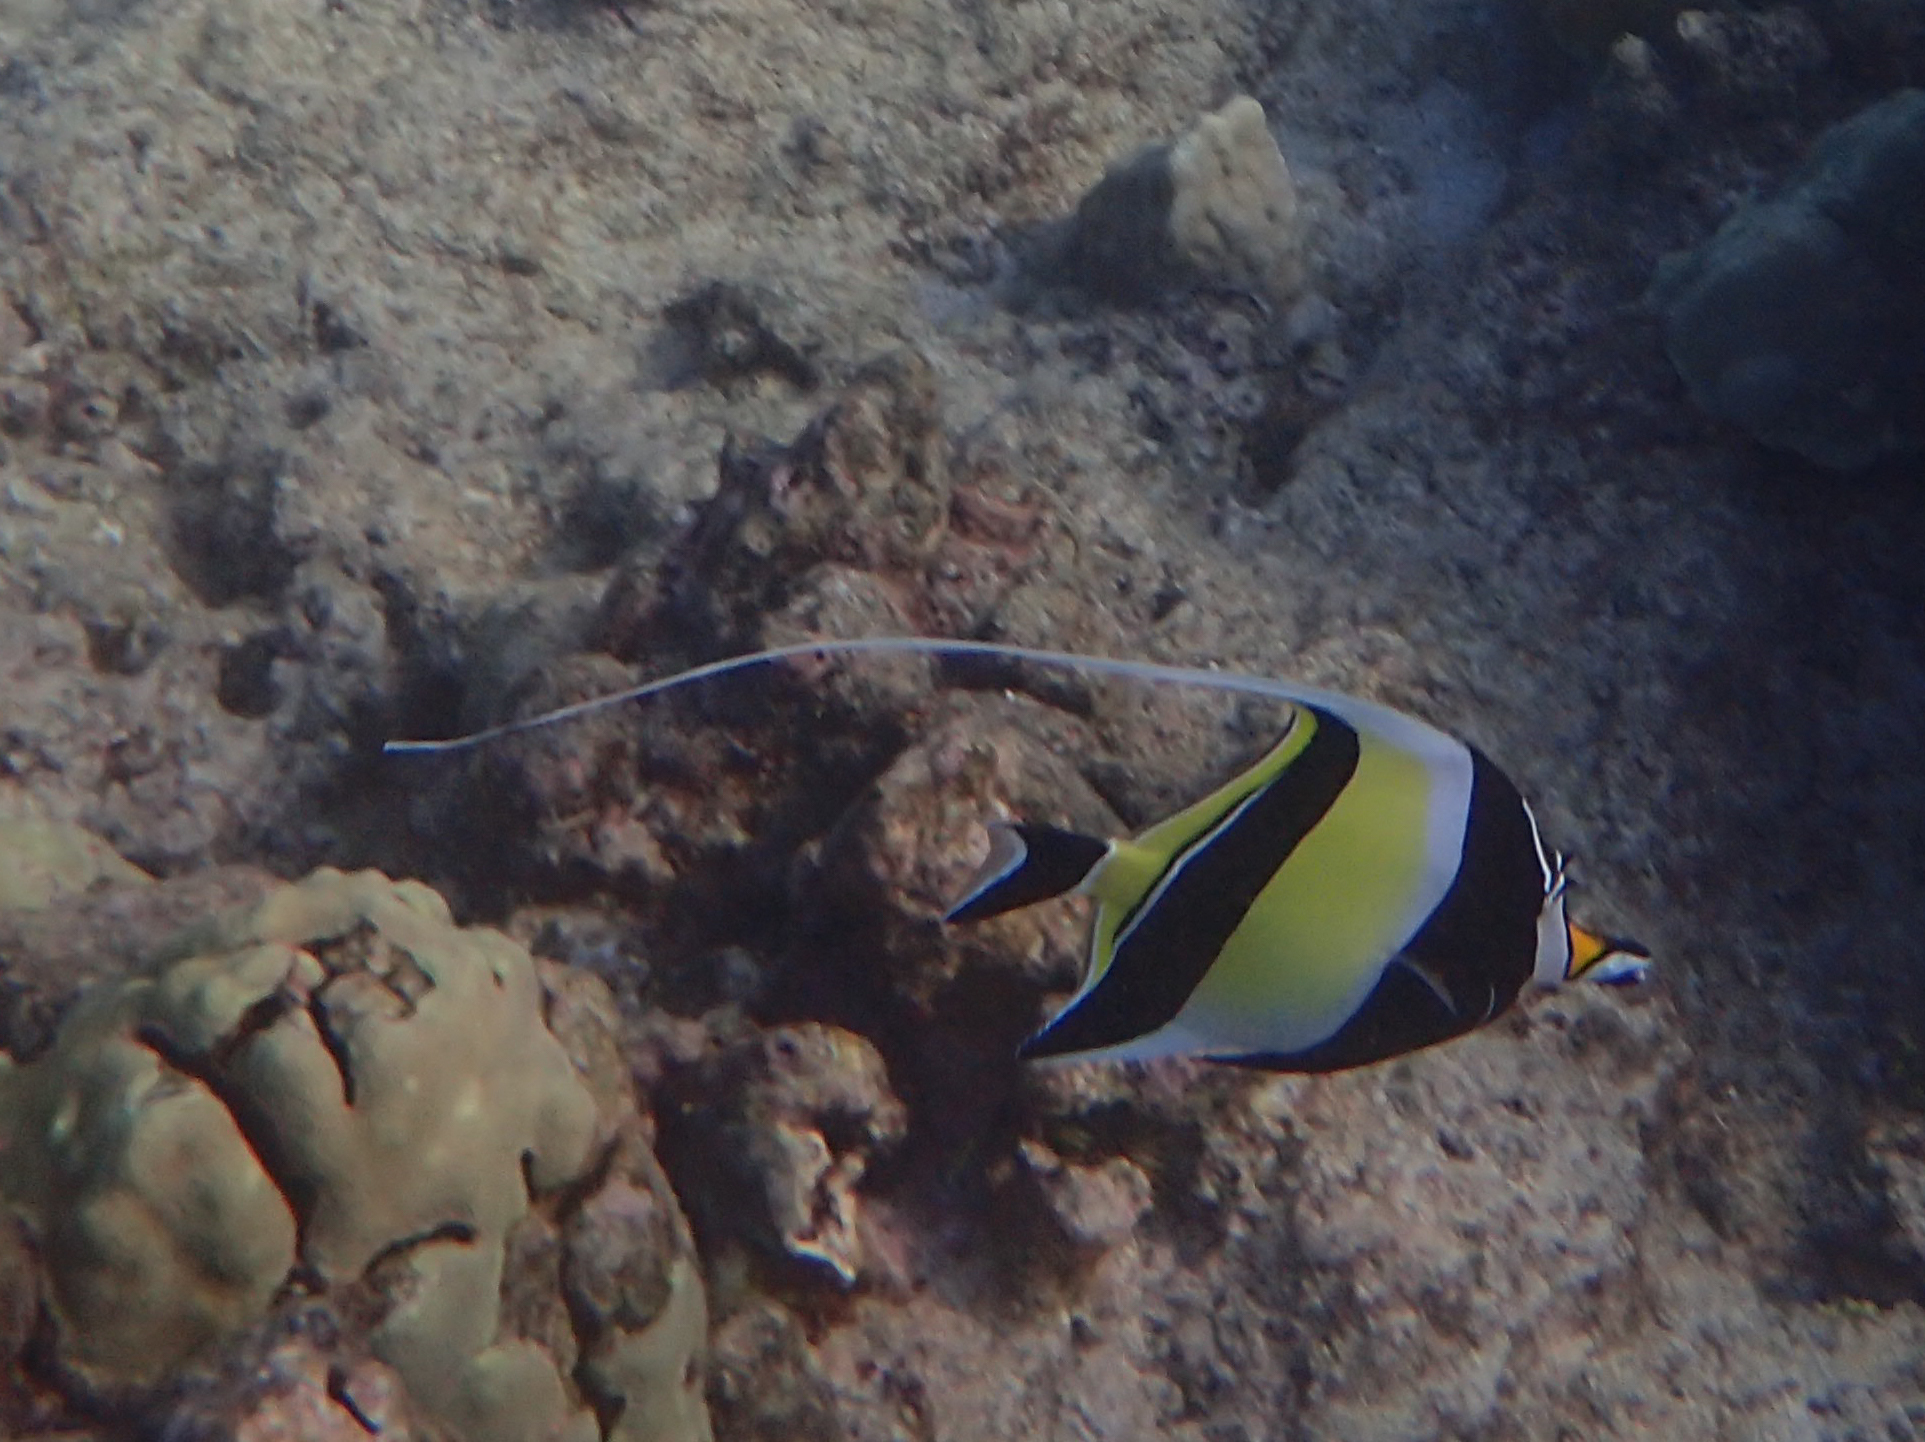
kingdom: Animalia
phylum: Chordata
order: Perciformes
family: Zanclidae
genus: Zanclus
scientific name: Zanclus cornutus
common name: Moorish idol
